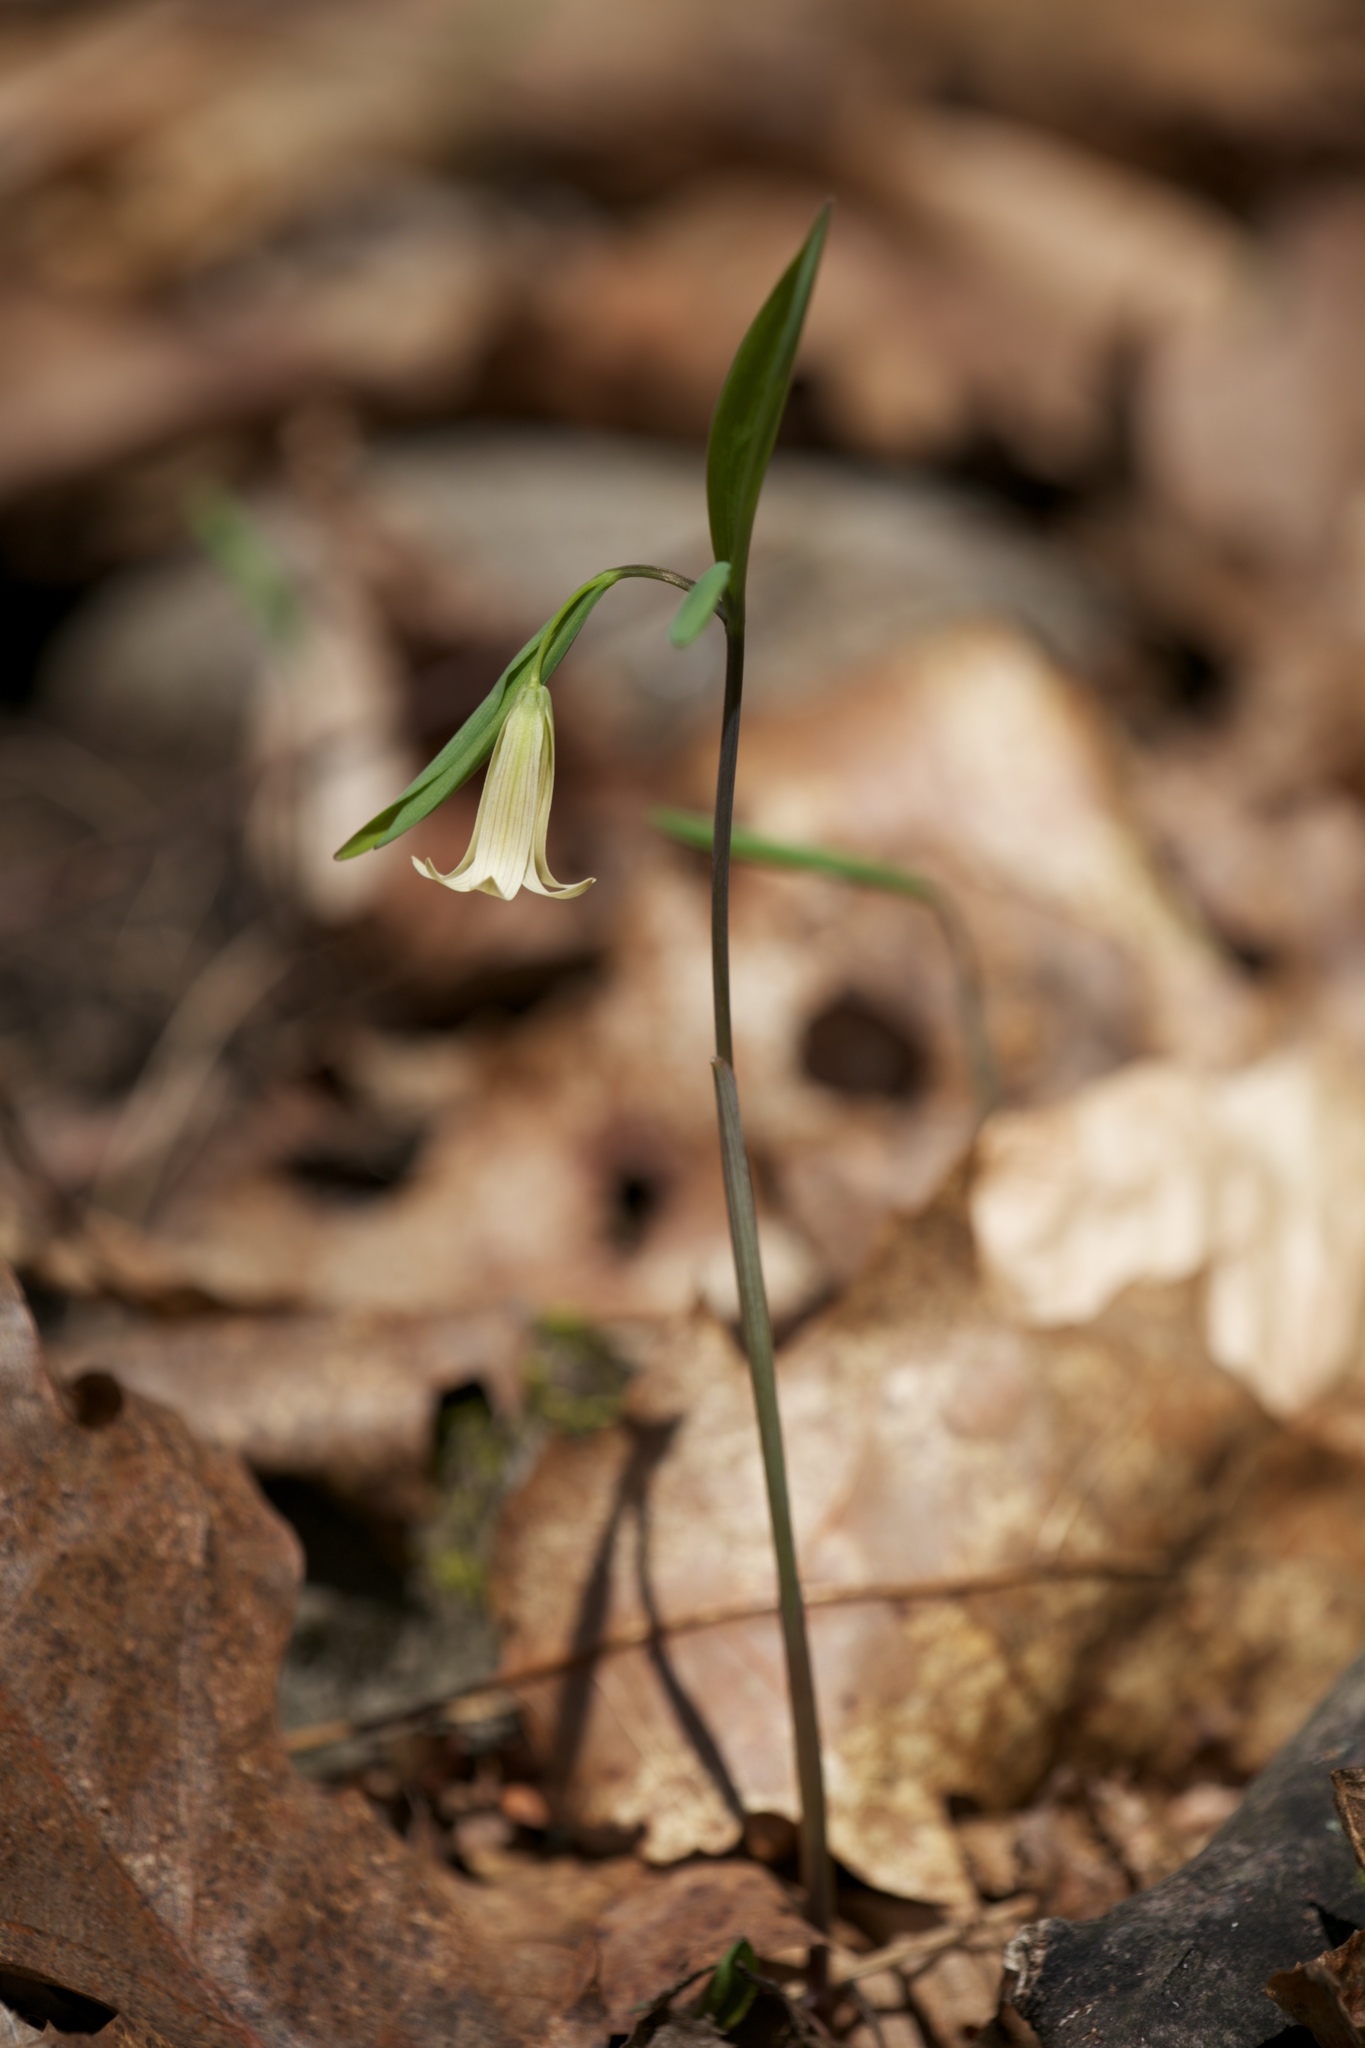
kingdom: Plantae
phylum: Tracheophyta
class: Liliopsida
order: Liliales
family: Colchicaceae
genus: Uvularia
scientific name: Uvularia sessilifolia
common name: Straw-lily
